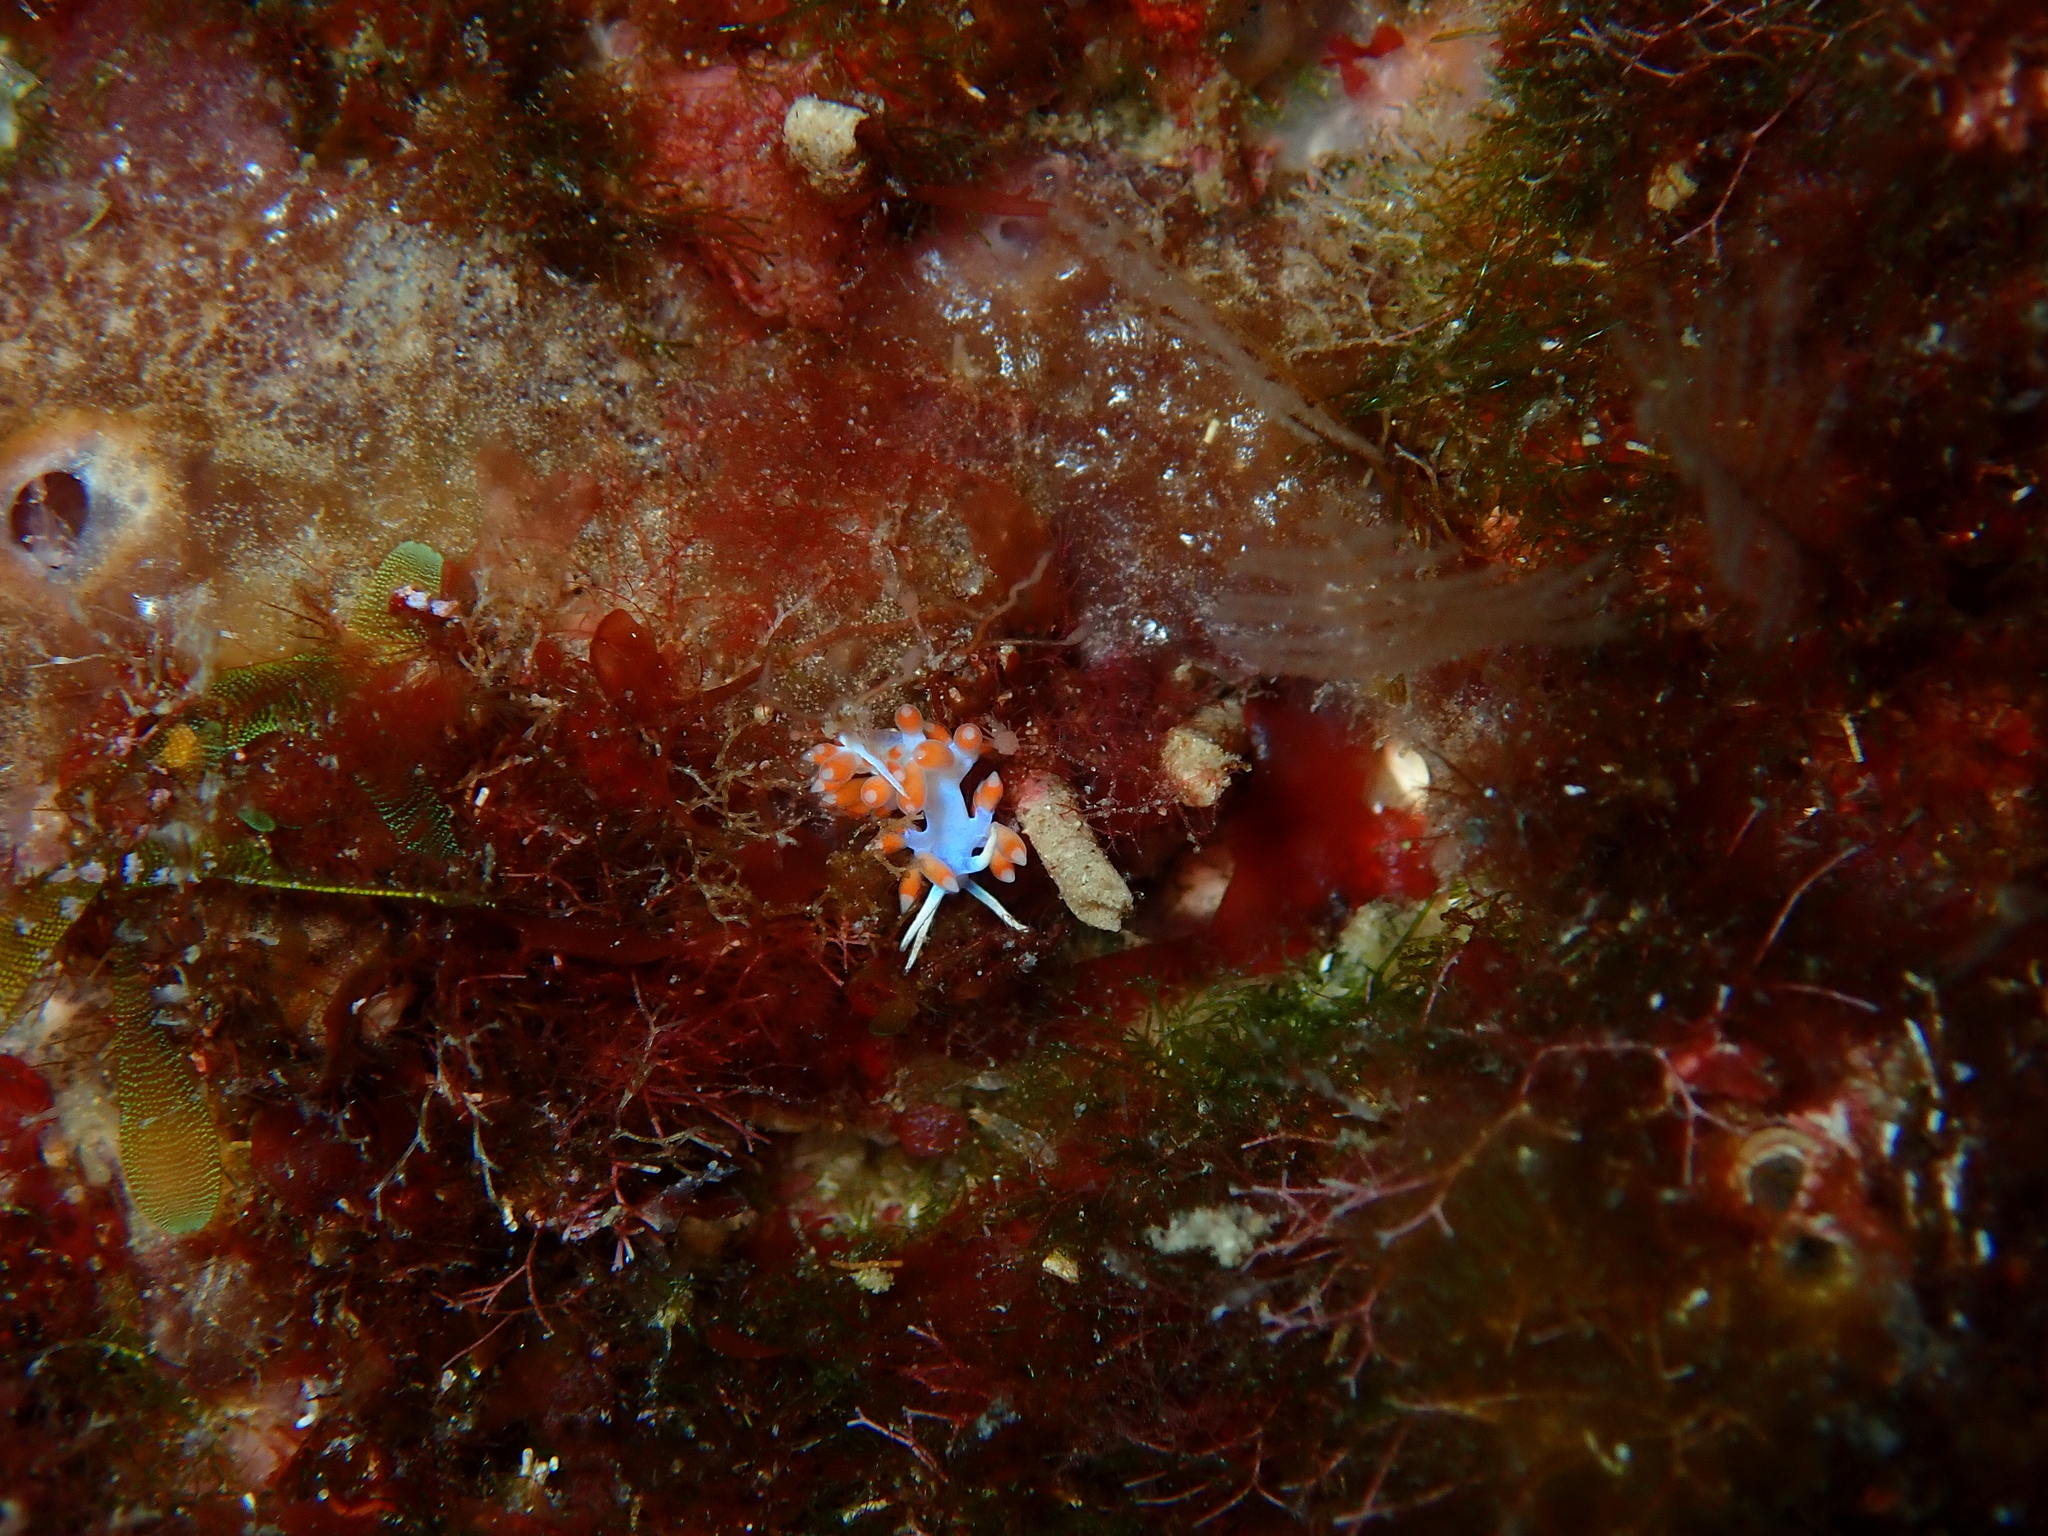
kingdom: Animalia
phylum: Mollusca
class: Gastropoda
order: Nudibranchia
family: Flabellinidae
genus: Calmella
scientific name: Calmella cavolini
